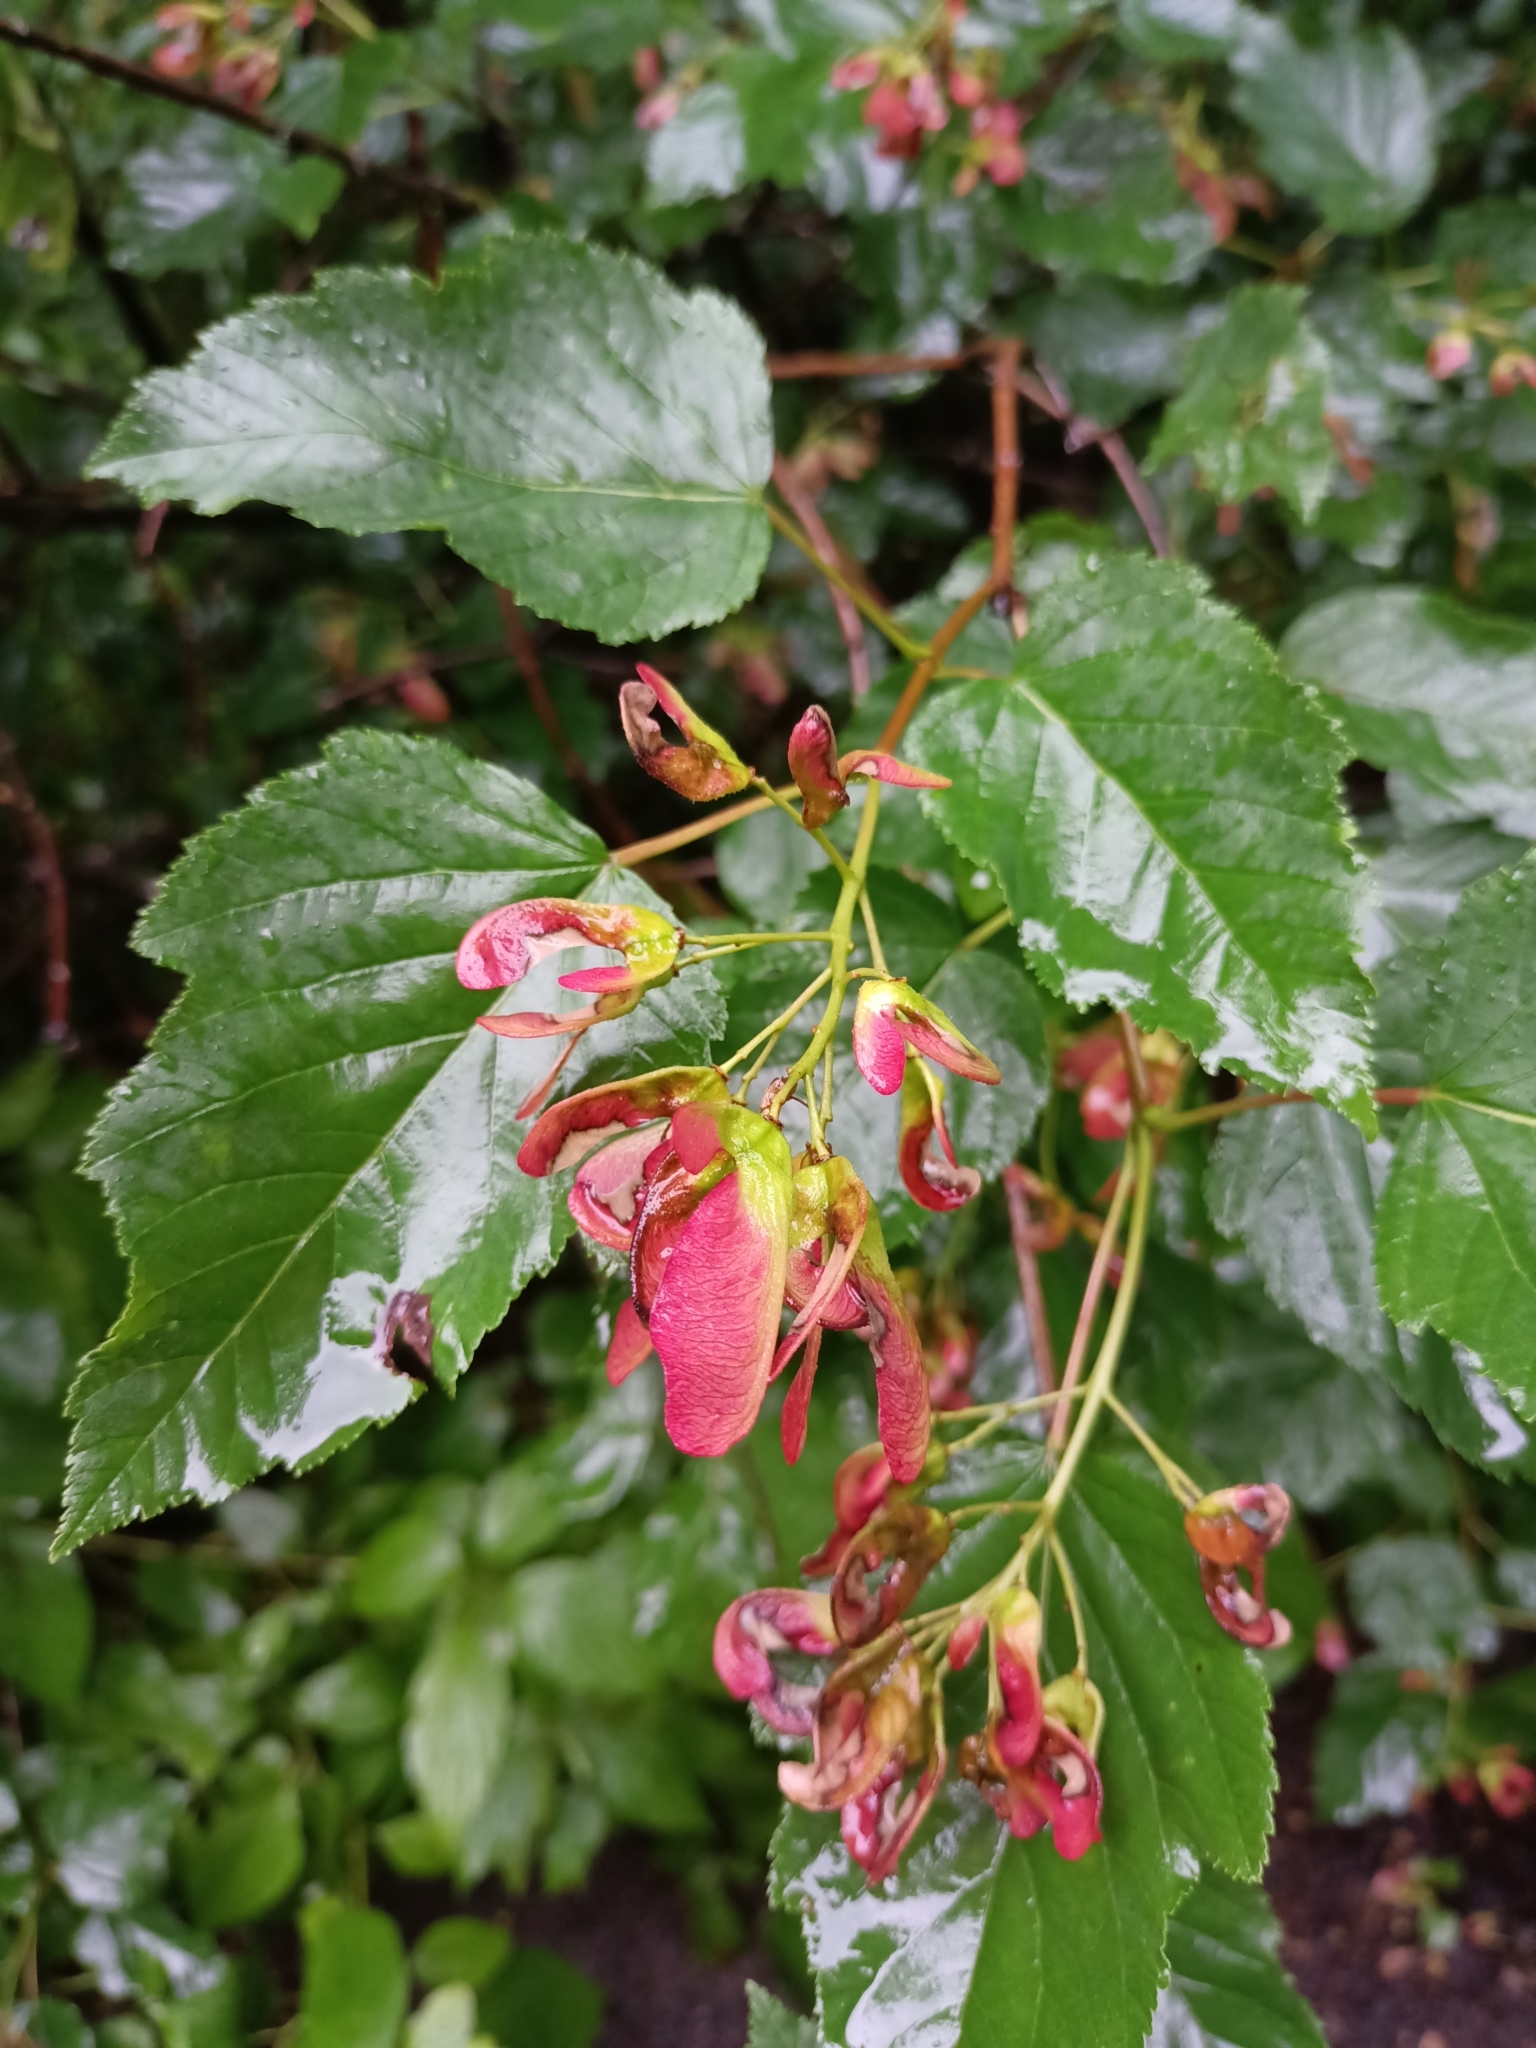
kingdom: Plantae
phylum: Tracheophyta
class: Magnoliopsida
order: Sapindales
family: Sapindaceae
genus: Acer
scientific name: Acer tataricum
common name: Tartar maple
